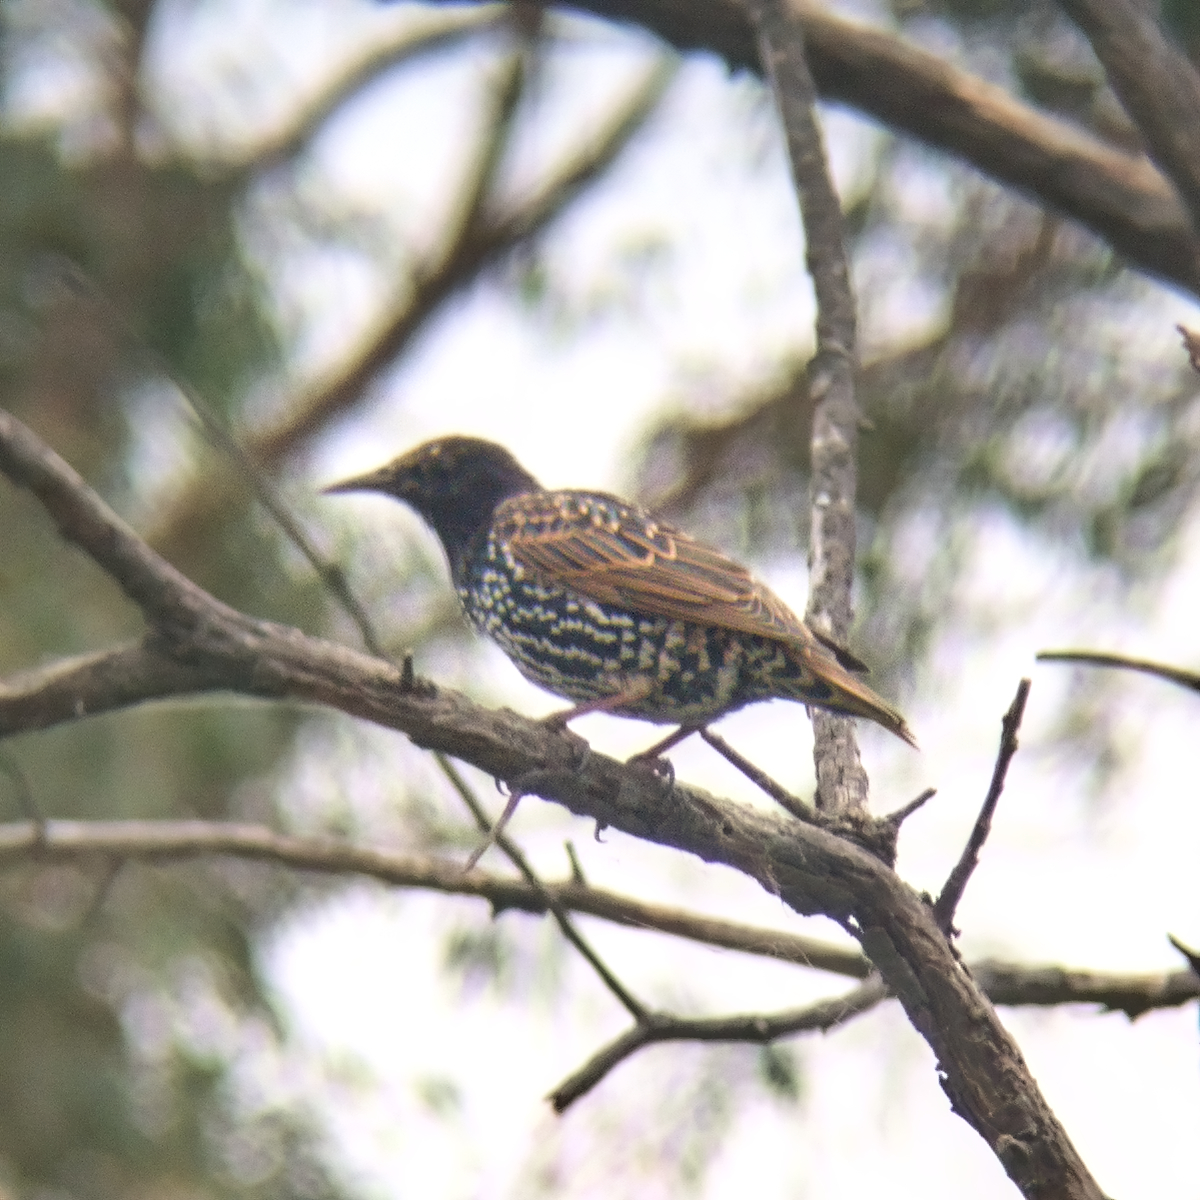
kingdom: Animalia
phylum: Chordata
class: Aves
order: Passeriformes
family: Sturnidae
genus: Sturnus
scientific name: Sturnus vulgaris
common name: Common starling
